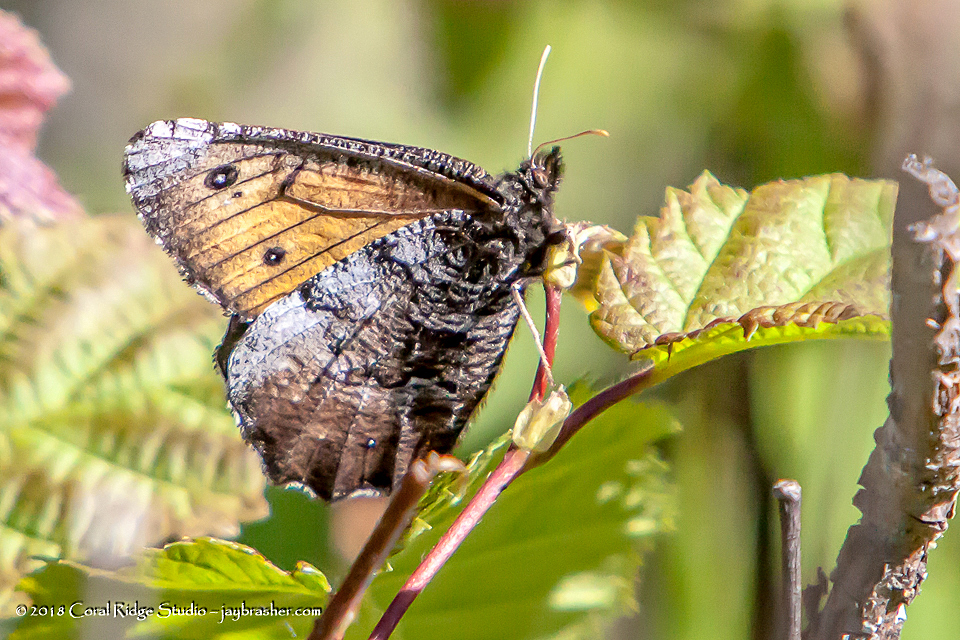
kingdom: Animalia
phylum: Arthropoda
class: Insecta
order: Lepidoptera
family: Nymphalidae
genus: Oeneis
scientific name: Oeneis macounii
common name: Macoun's arctic
